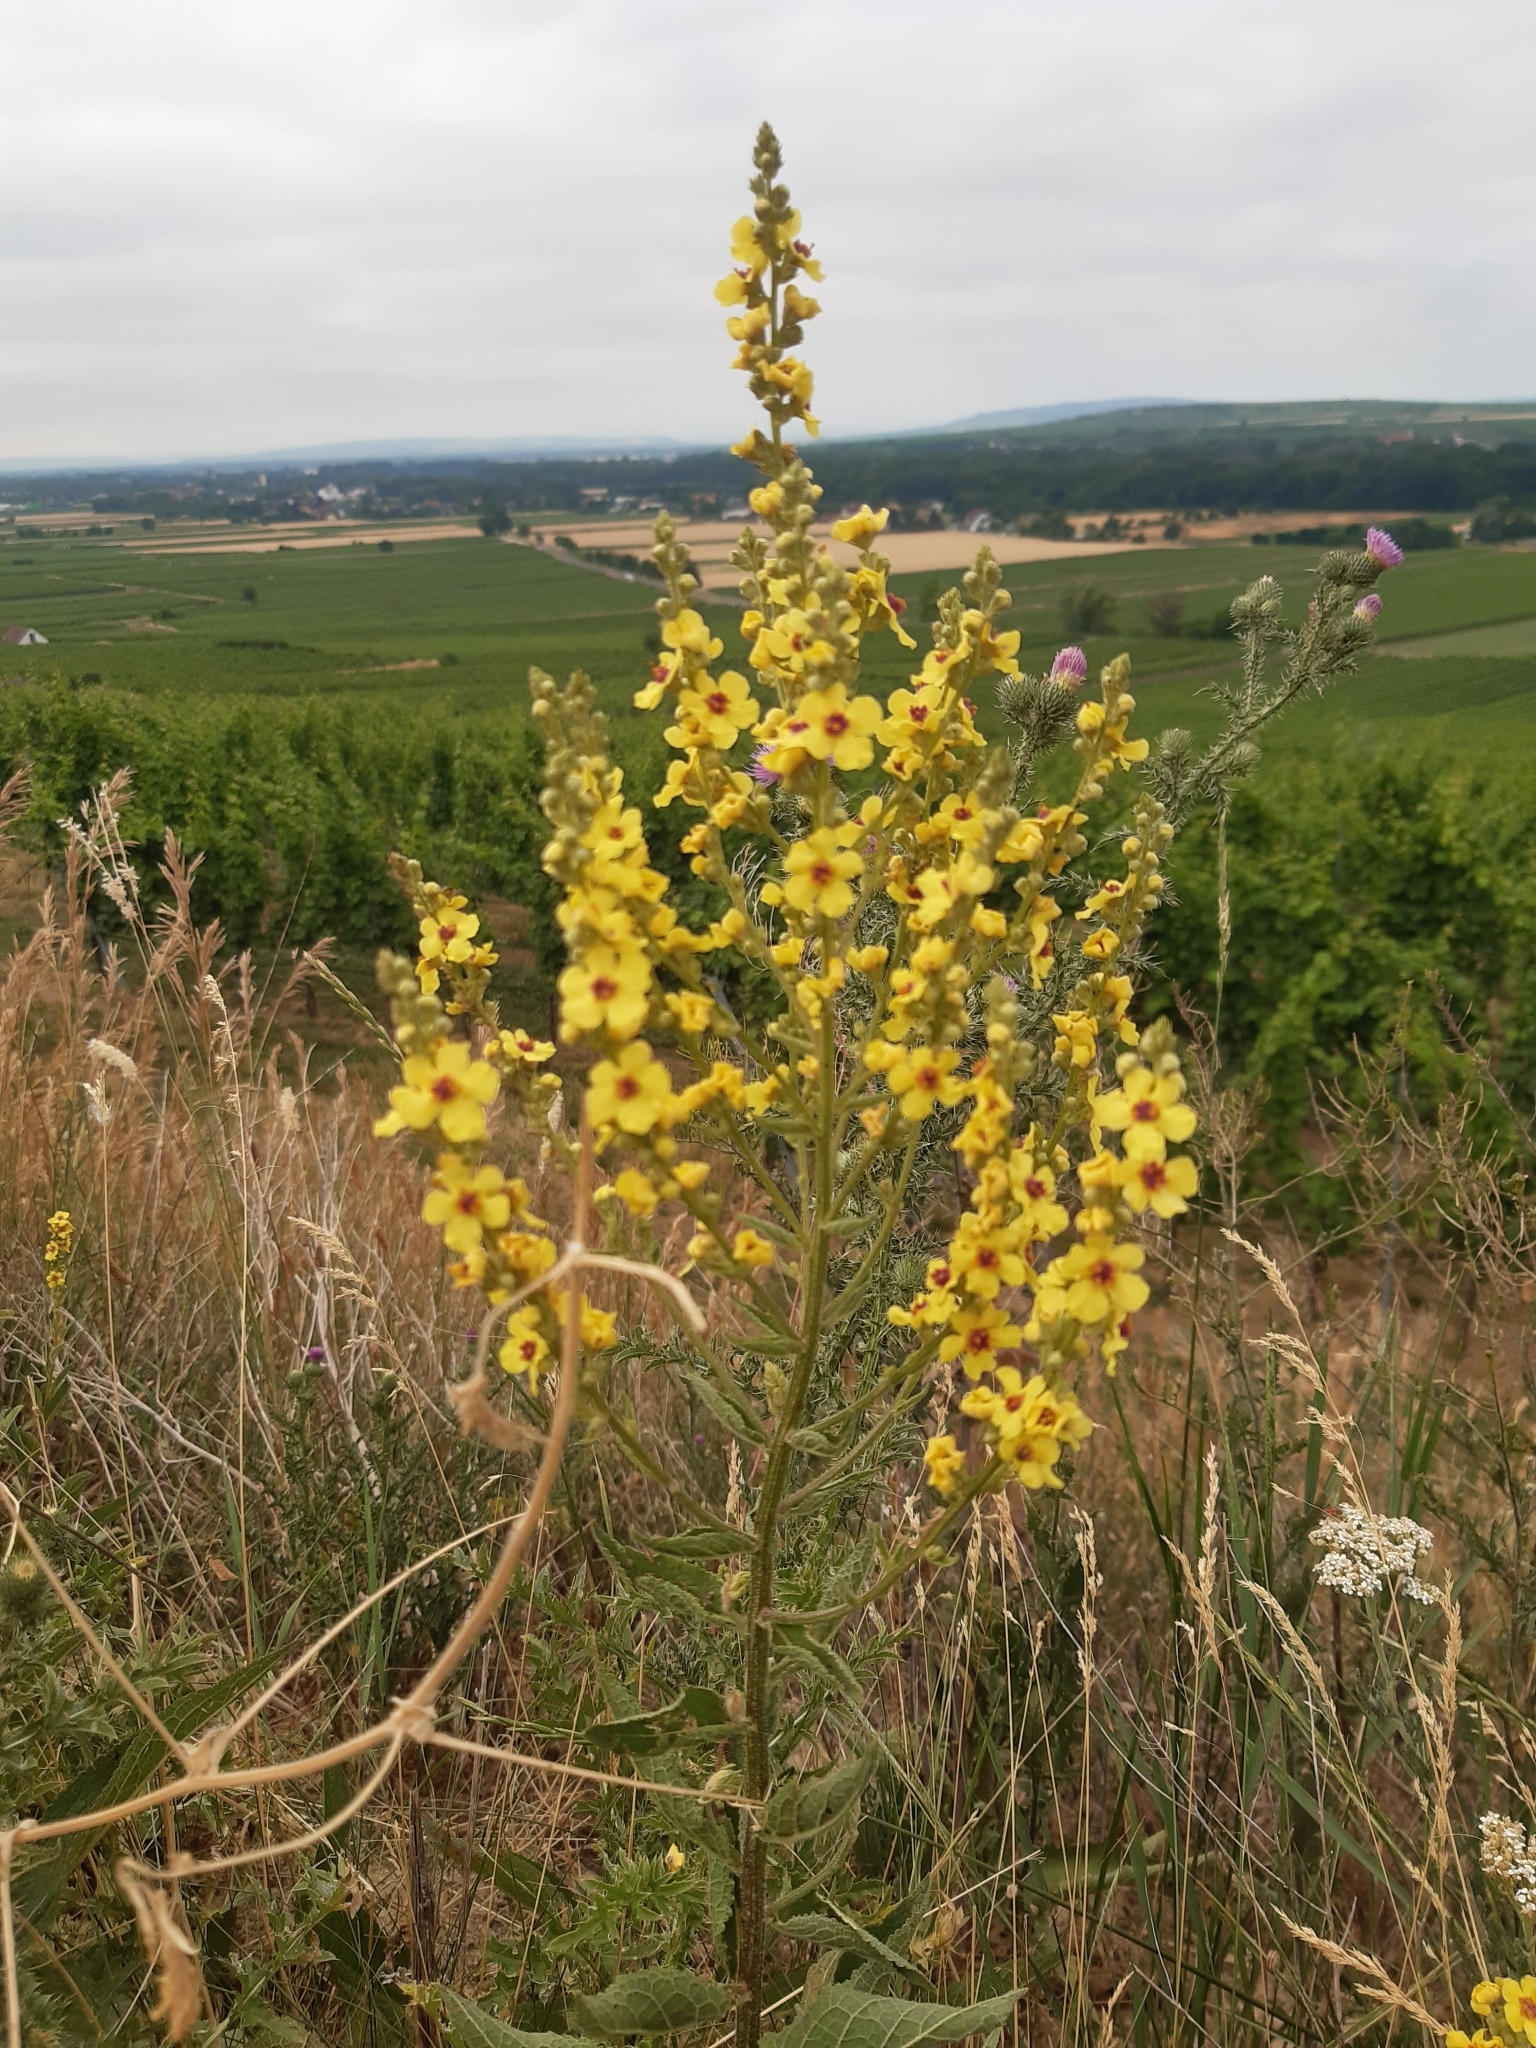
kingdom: Plantae
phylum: Tracheophyta
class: Magnoliopsida
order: Lamiales
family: Scrophulariaceae
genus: Verbascum
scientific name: Verbascum chaixii
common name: Nettle-leaved mullein
